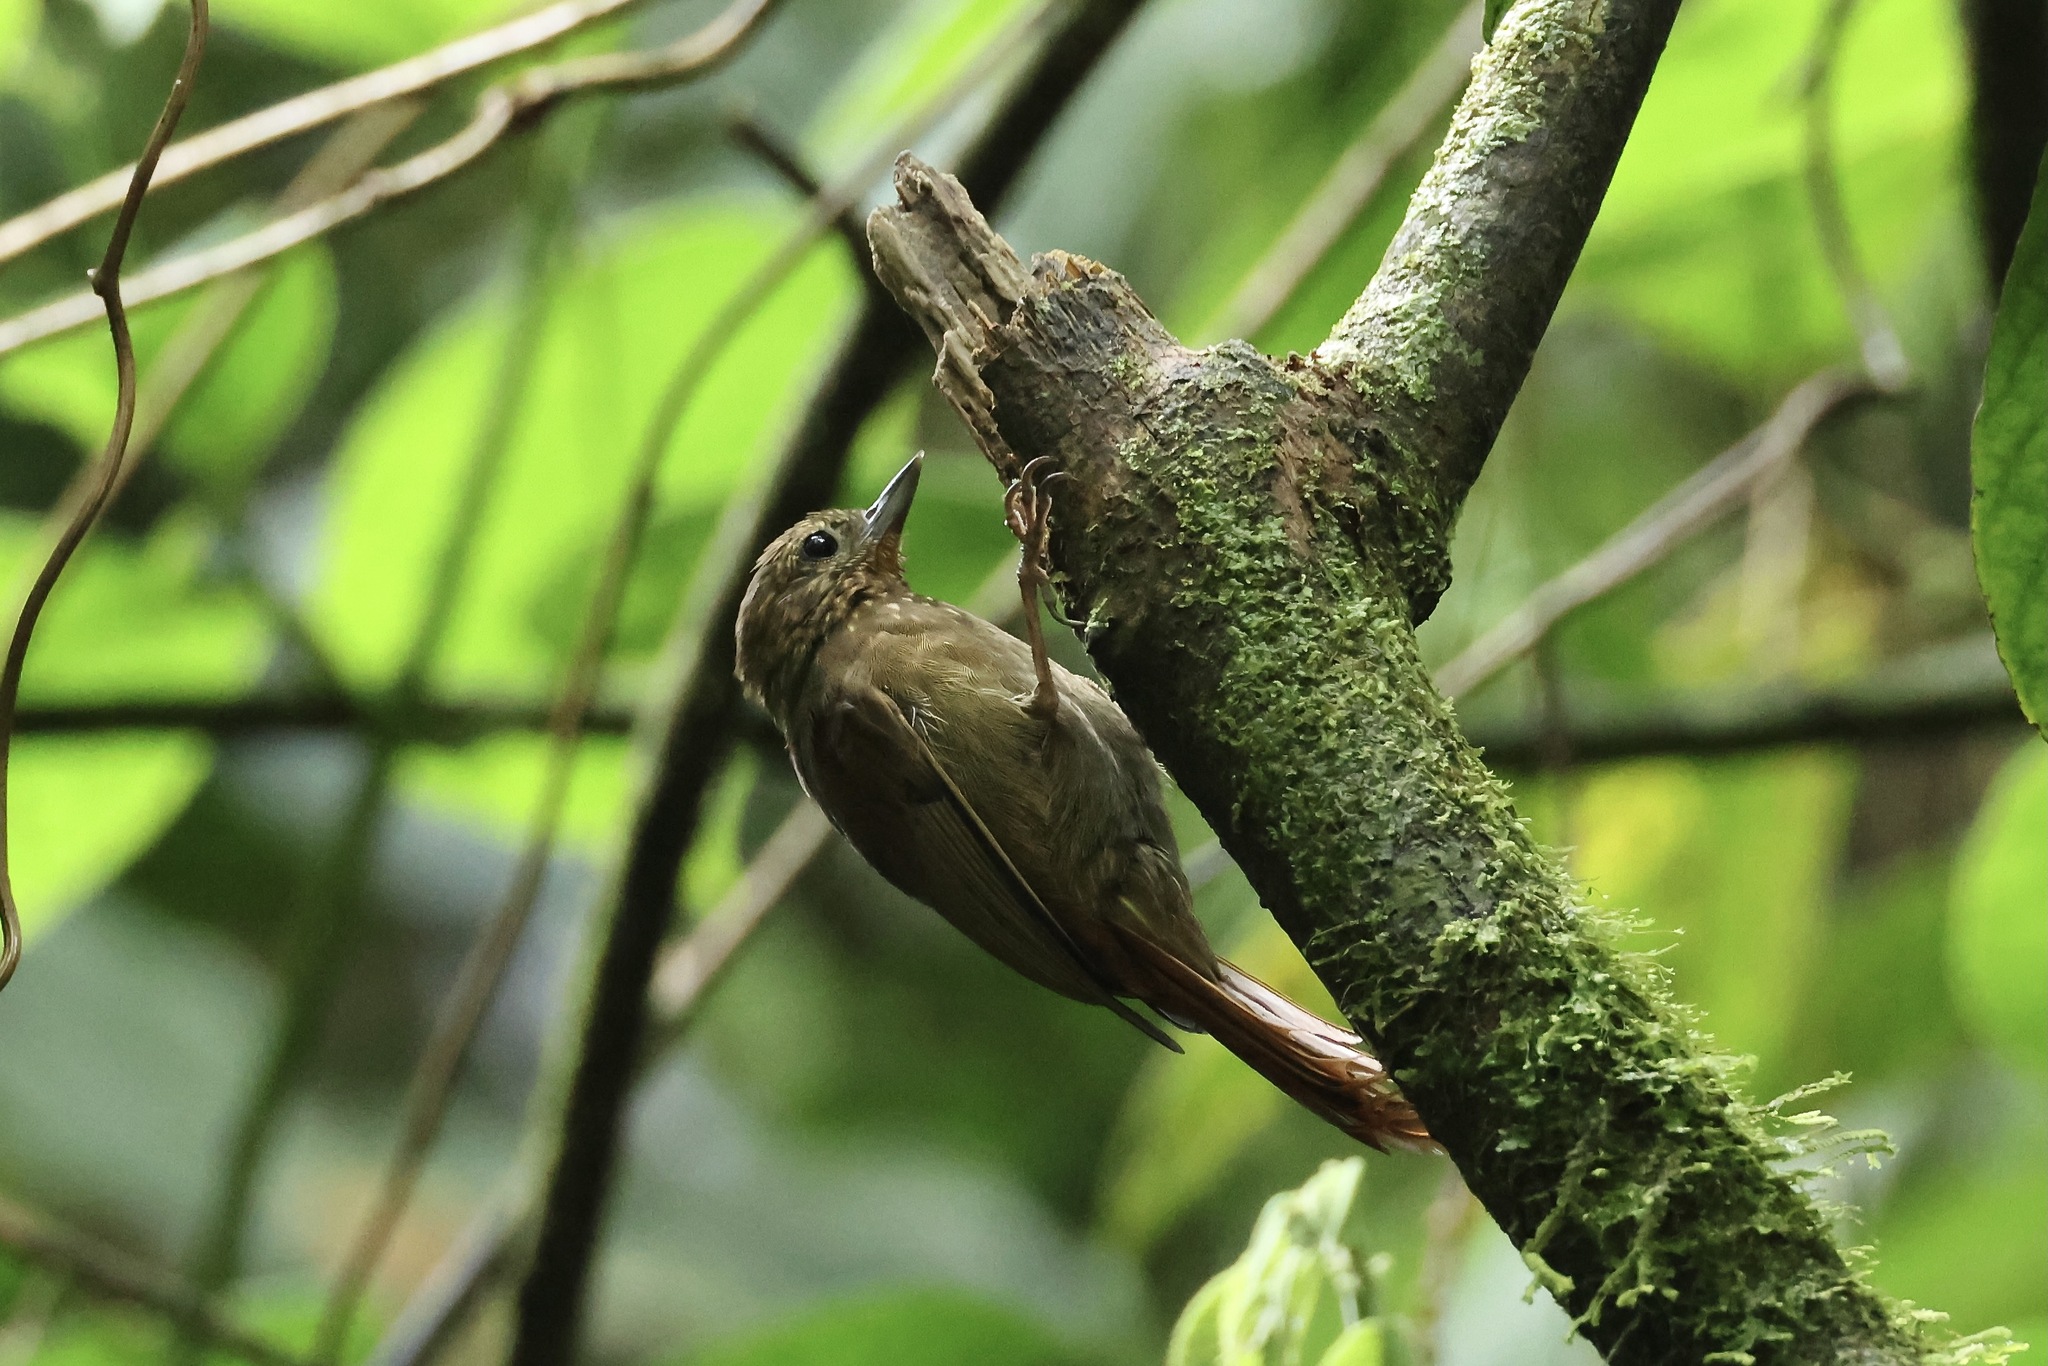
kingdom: Animalia
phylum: Chordata
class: Aves
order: Passeriformes
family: Furnariidae
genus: Glyphorynchus
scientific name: Glyphorynchus spirurus
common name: Wedge-billed woodcreeper
